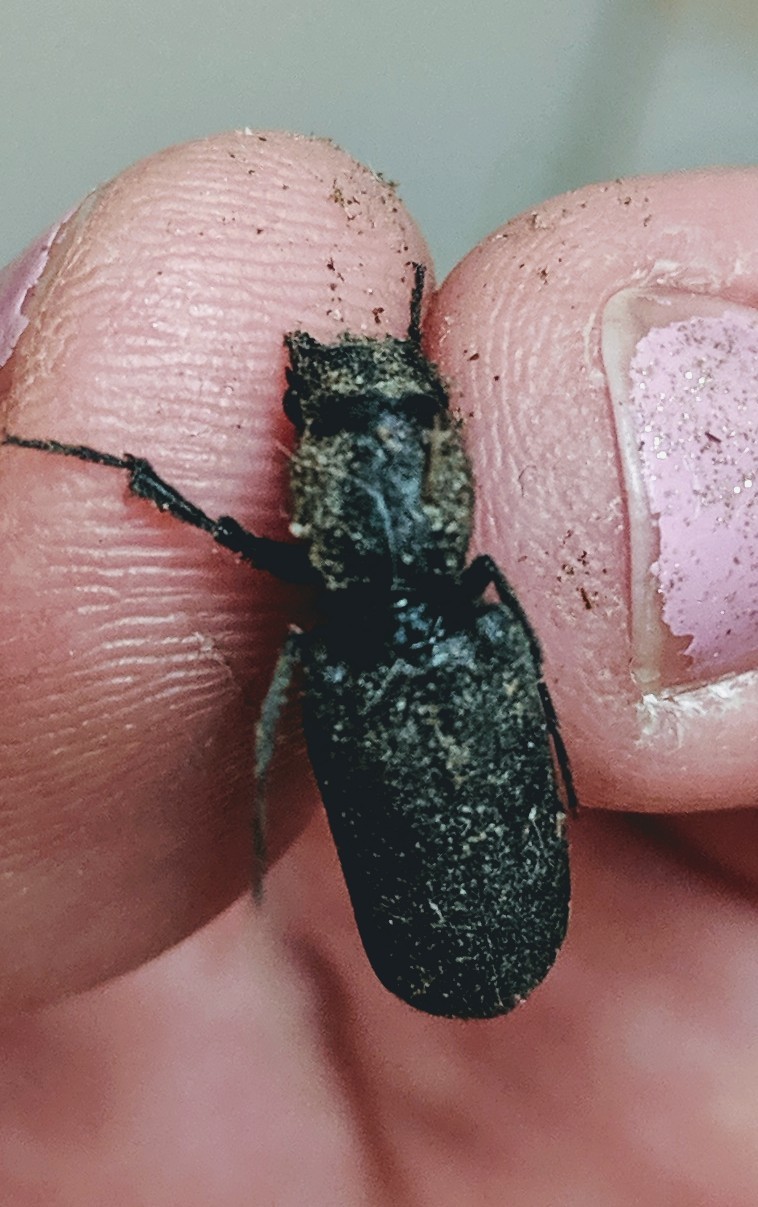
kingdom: Animalia
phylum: Arthropoda
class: Insecta
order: Coleoptera
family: Bostrichidae
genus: Polycaon
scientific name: Polycaon stoutii
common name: Powderpost beetle
